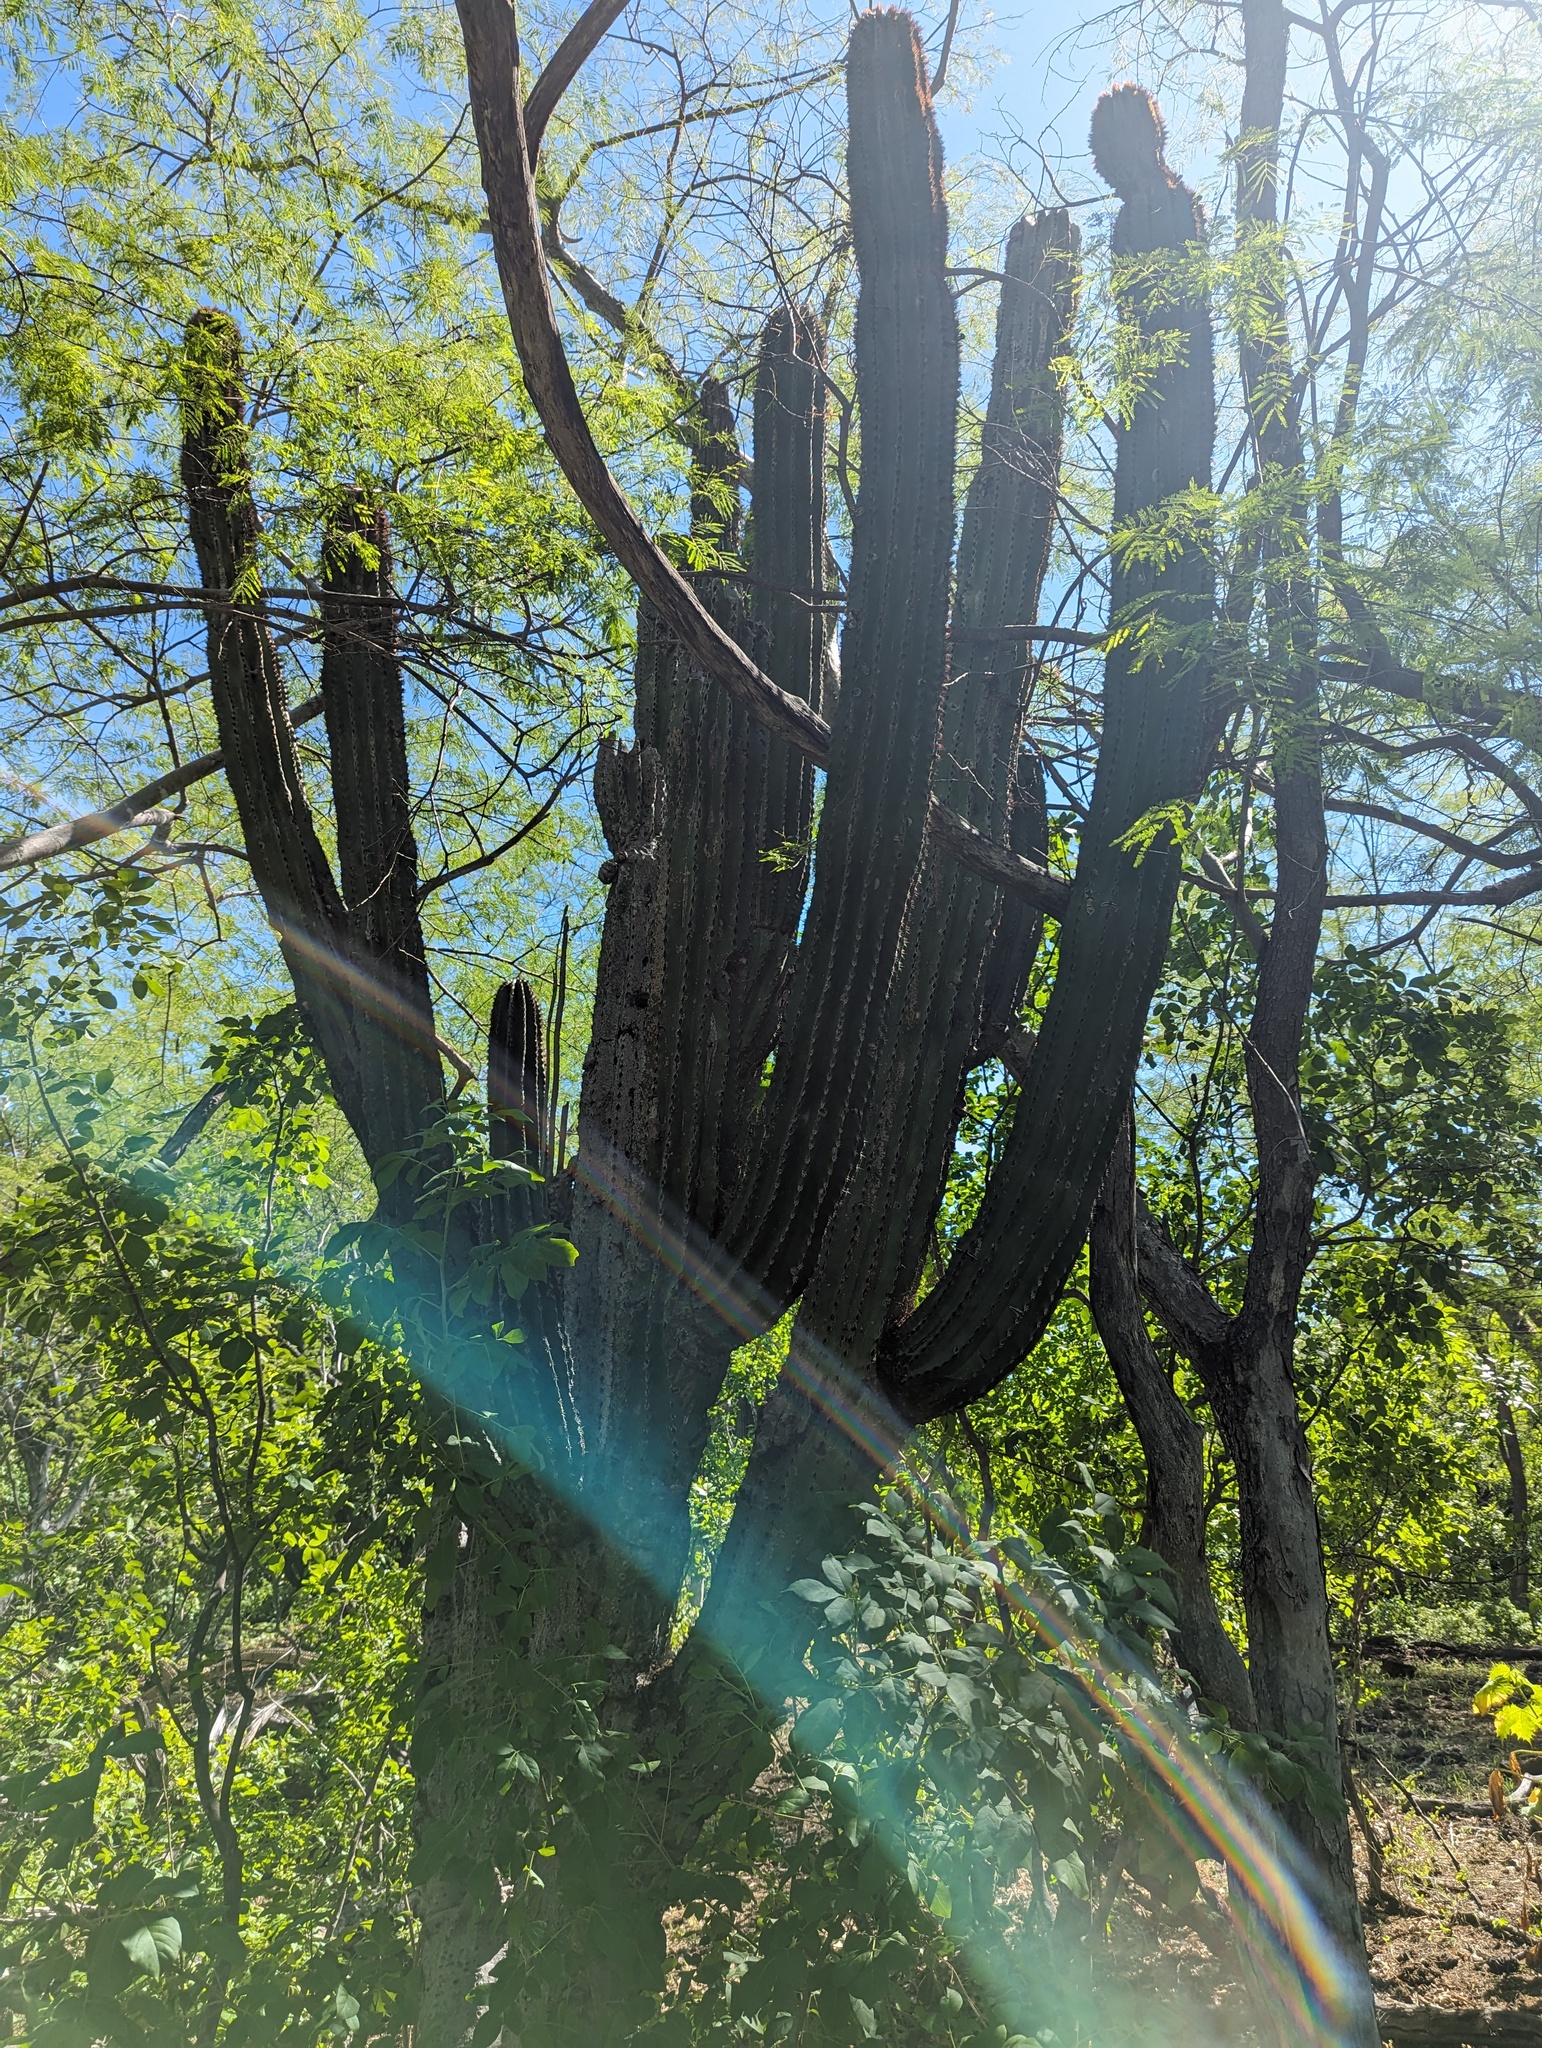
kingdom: Plantae
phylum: Tracheophyta
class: Magnoliopsida
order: Caryophyllales
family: Cactaceae
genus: Pachycereus
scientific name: Pachycereus pecten-aboriginum
